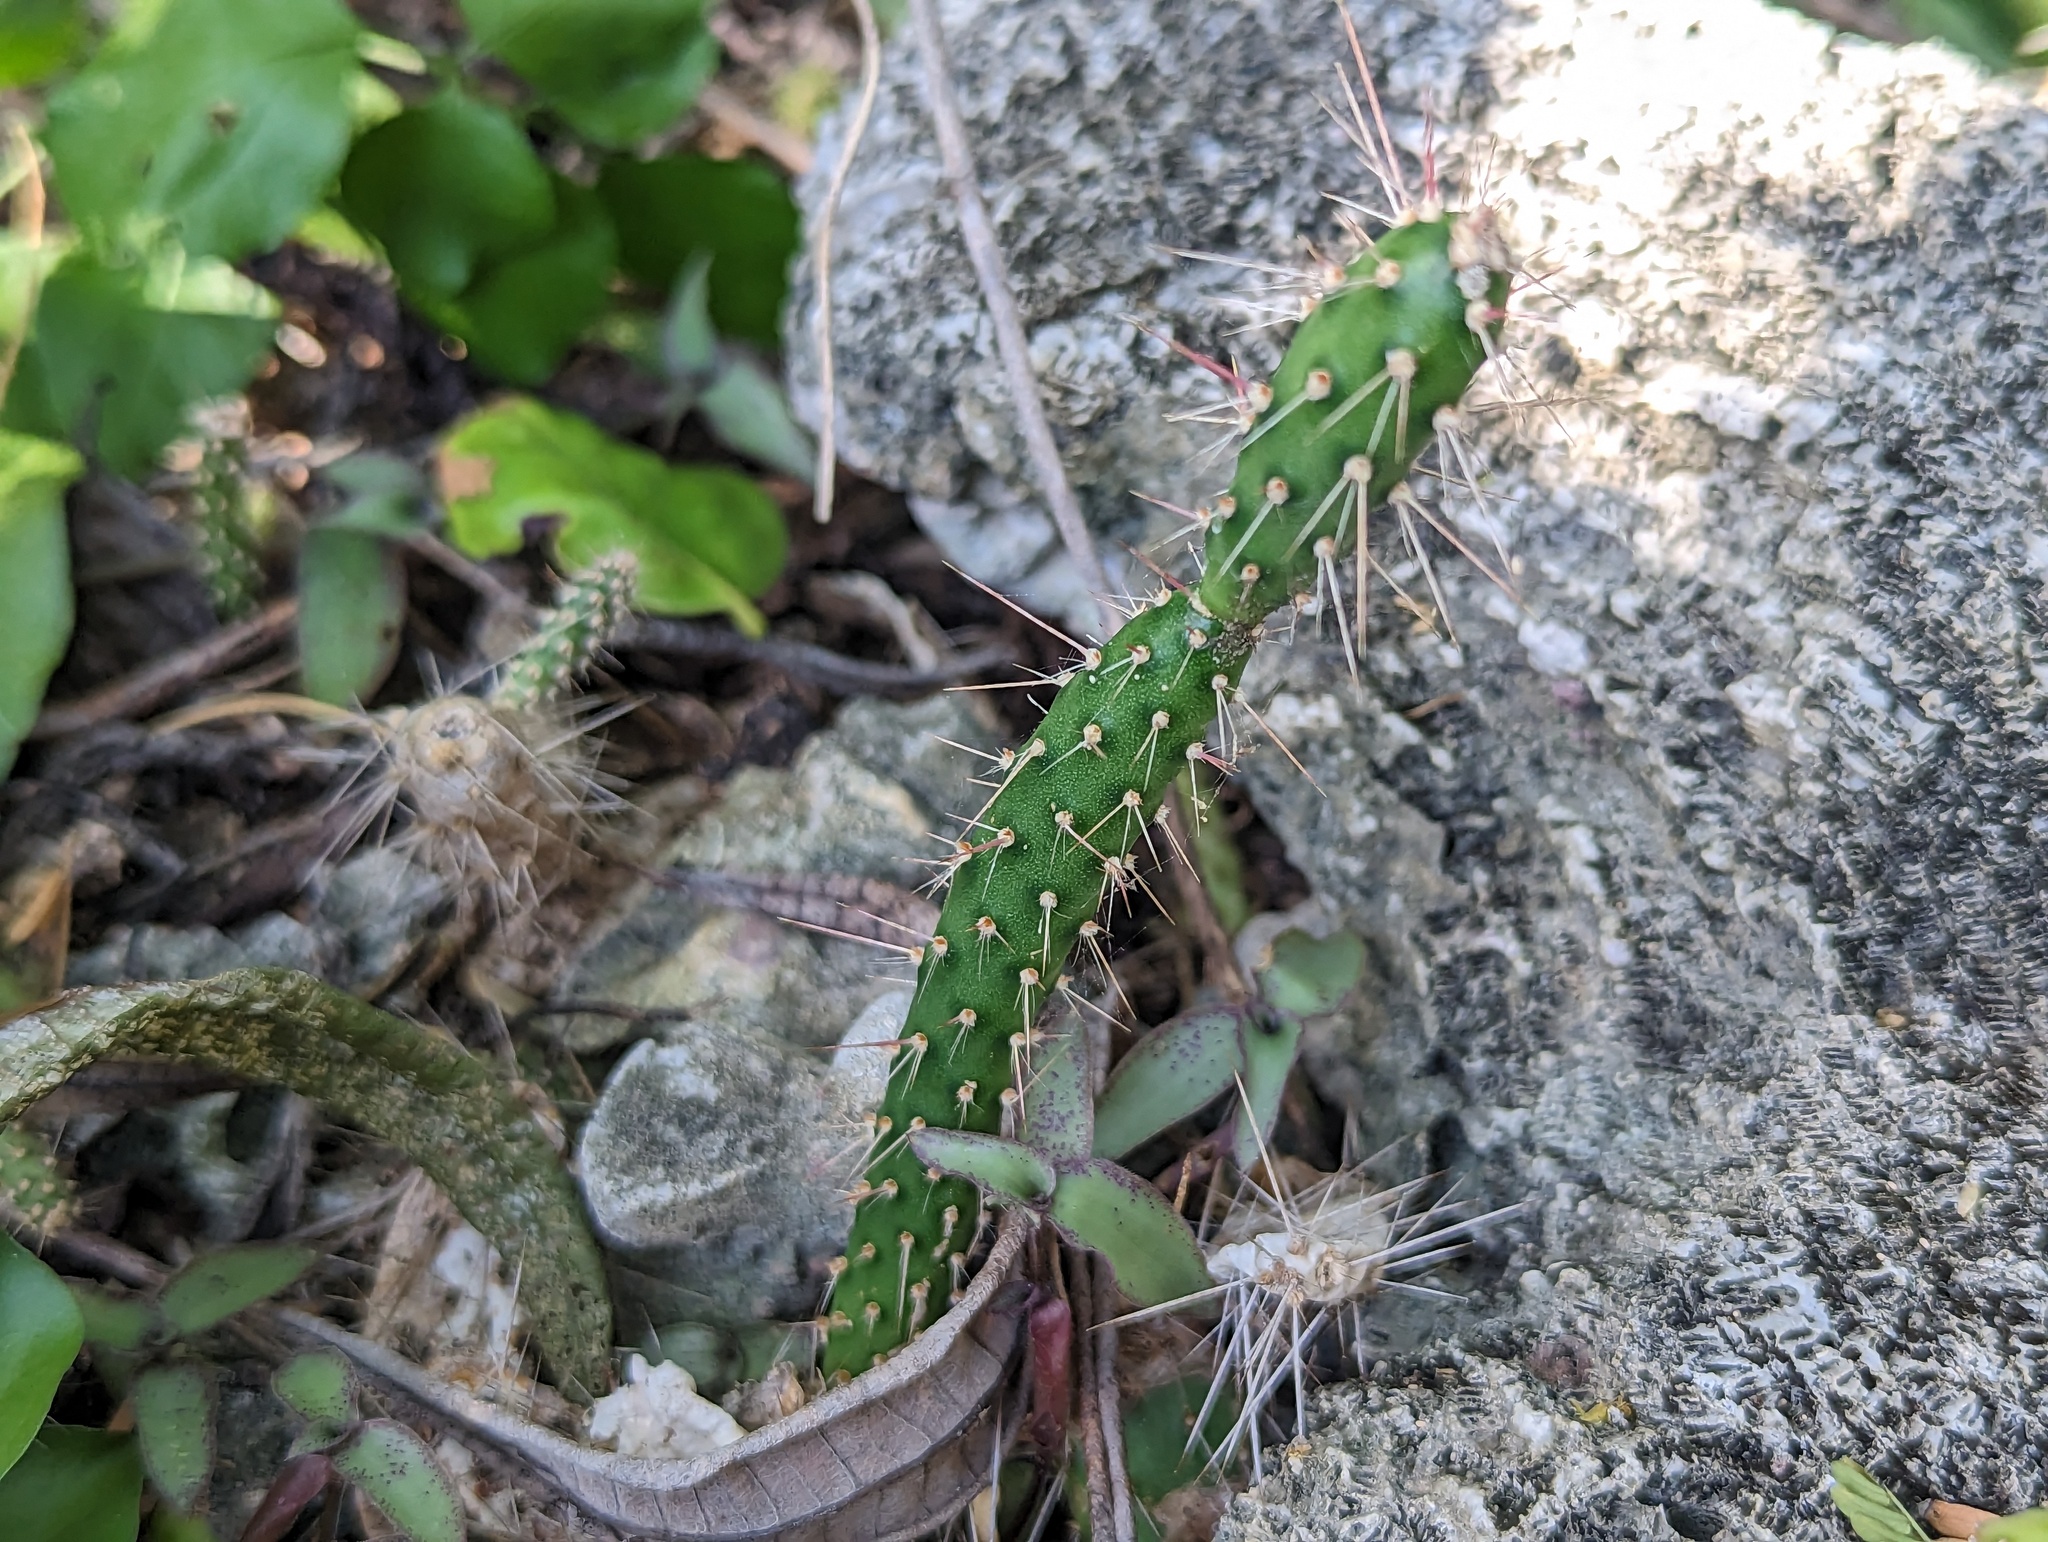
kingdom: Plantae
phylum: Tracheophyta
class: Magnoliopsida
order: Caryophyllales
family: Cactaceae
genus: Opuntia
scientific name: Opuntia repens
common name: Roving pricklypear
